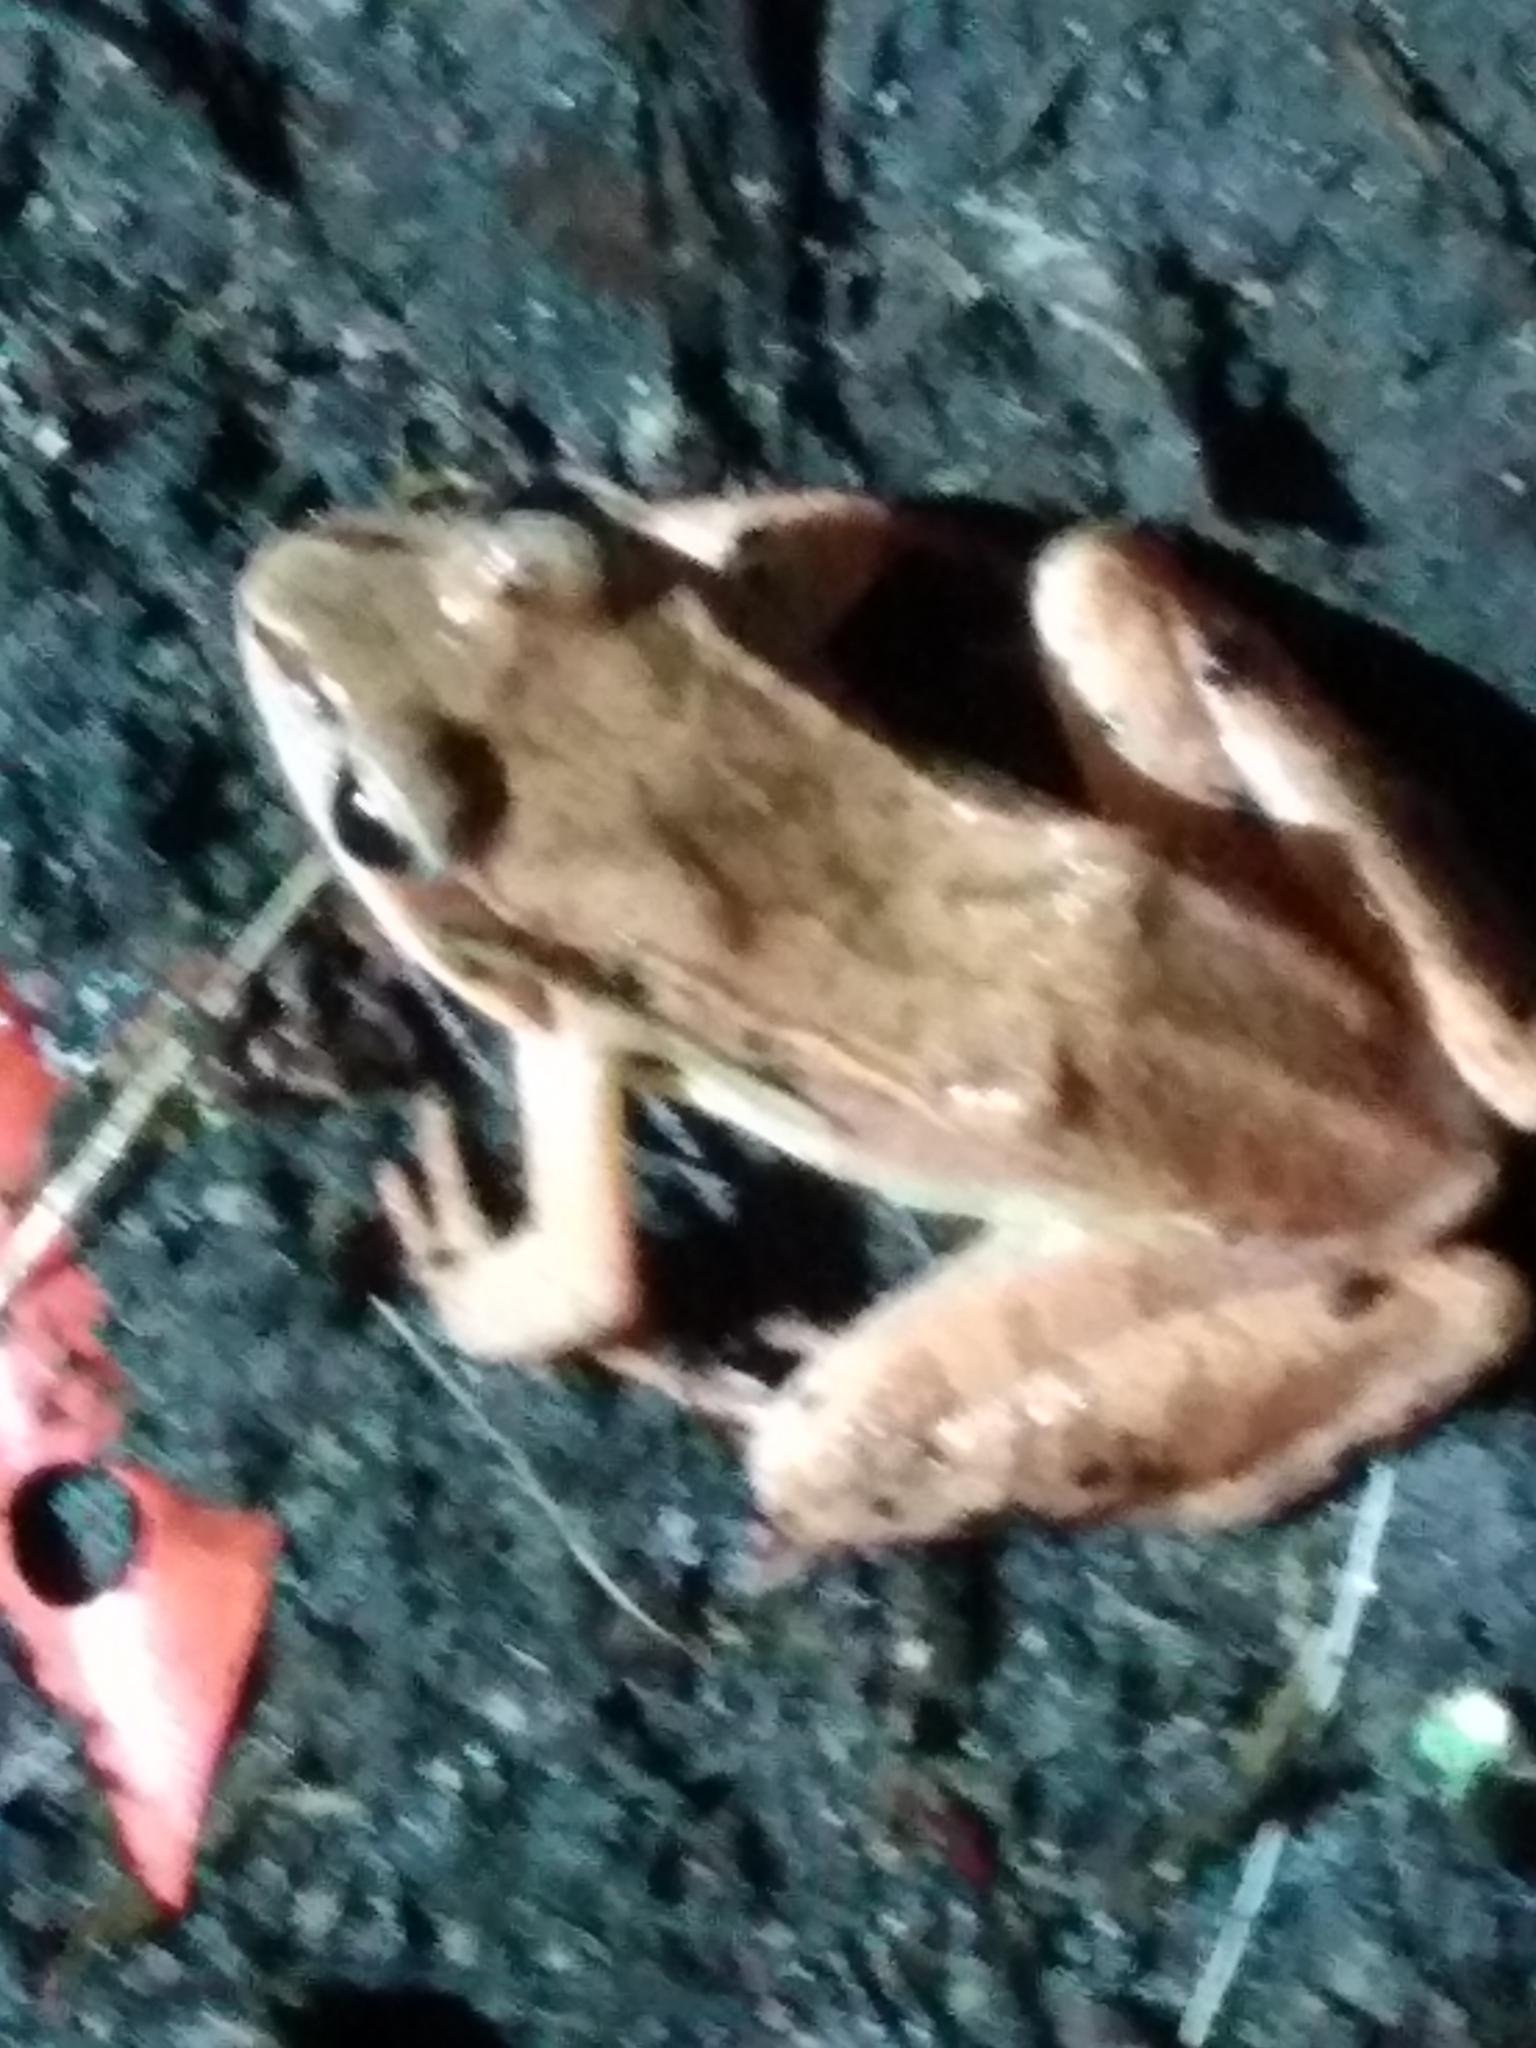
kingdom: Animalia
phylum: Chordata
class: Amphibia
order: Anura
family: Ranidae
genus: Lithobates
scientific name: Lithobates sylvaticus
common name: Wood frog
